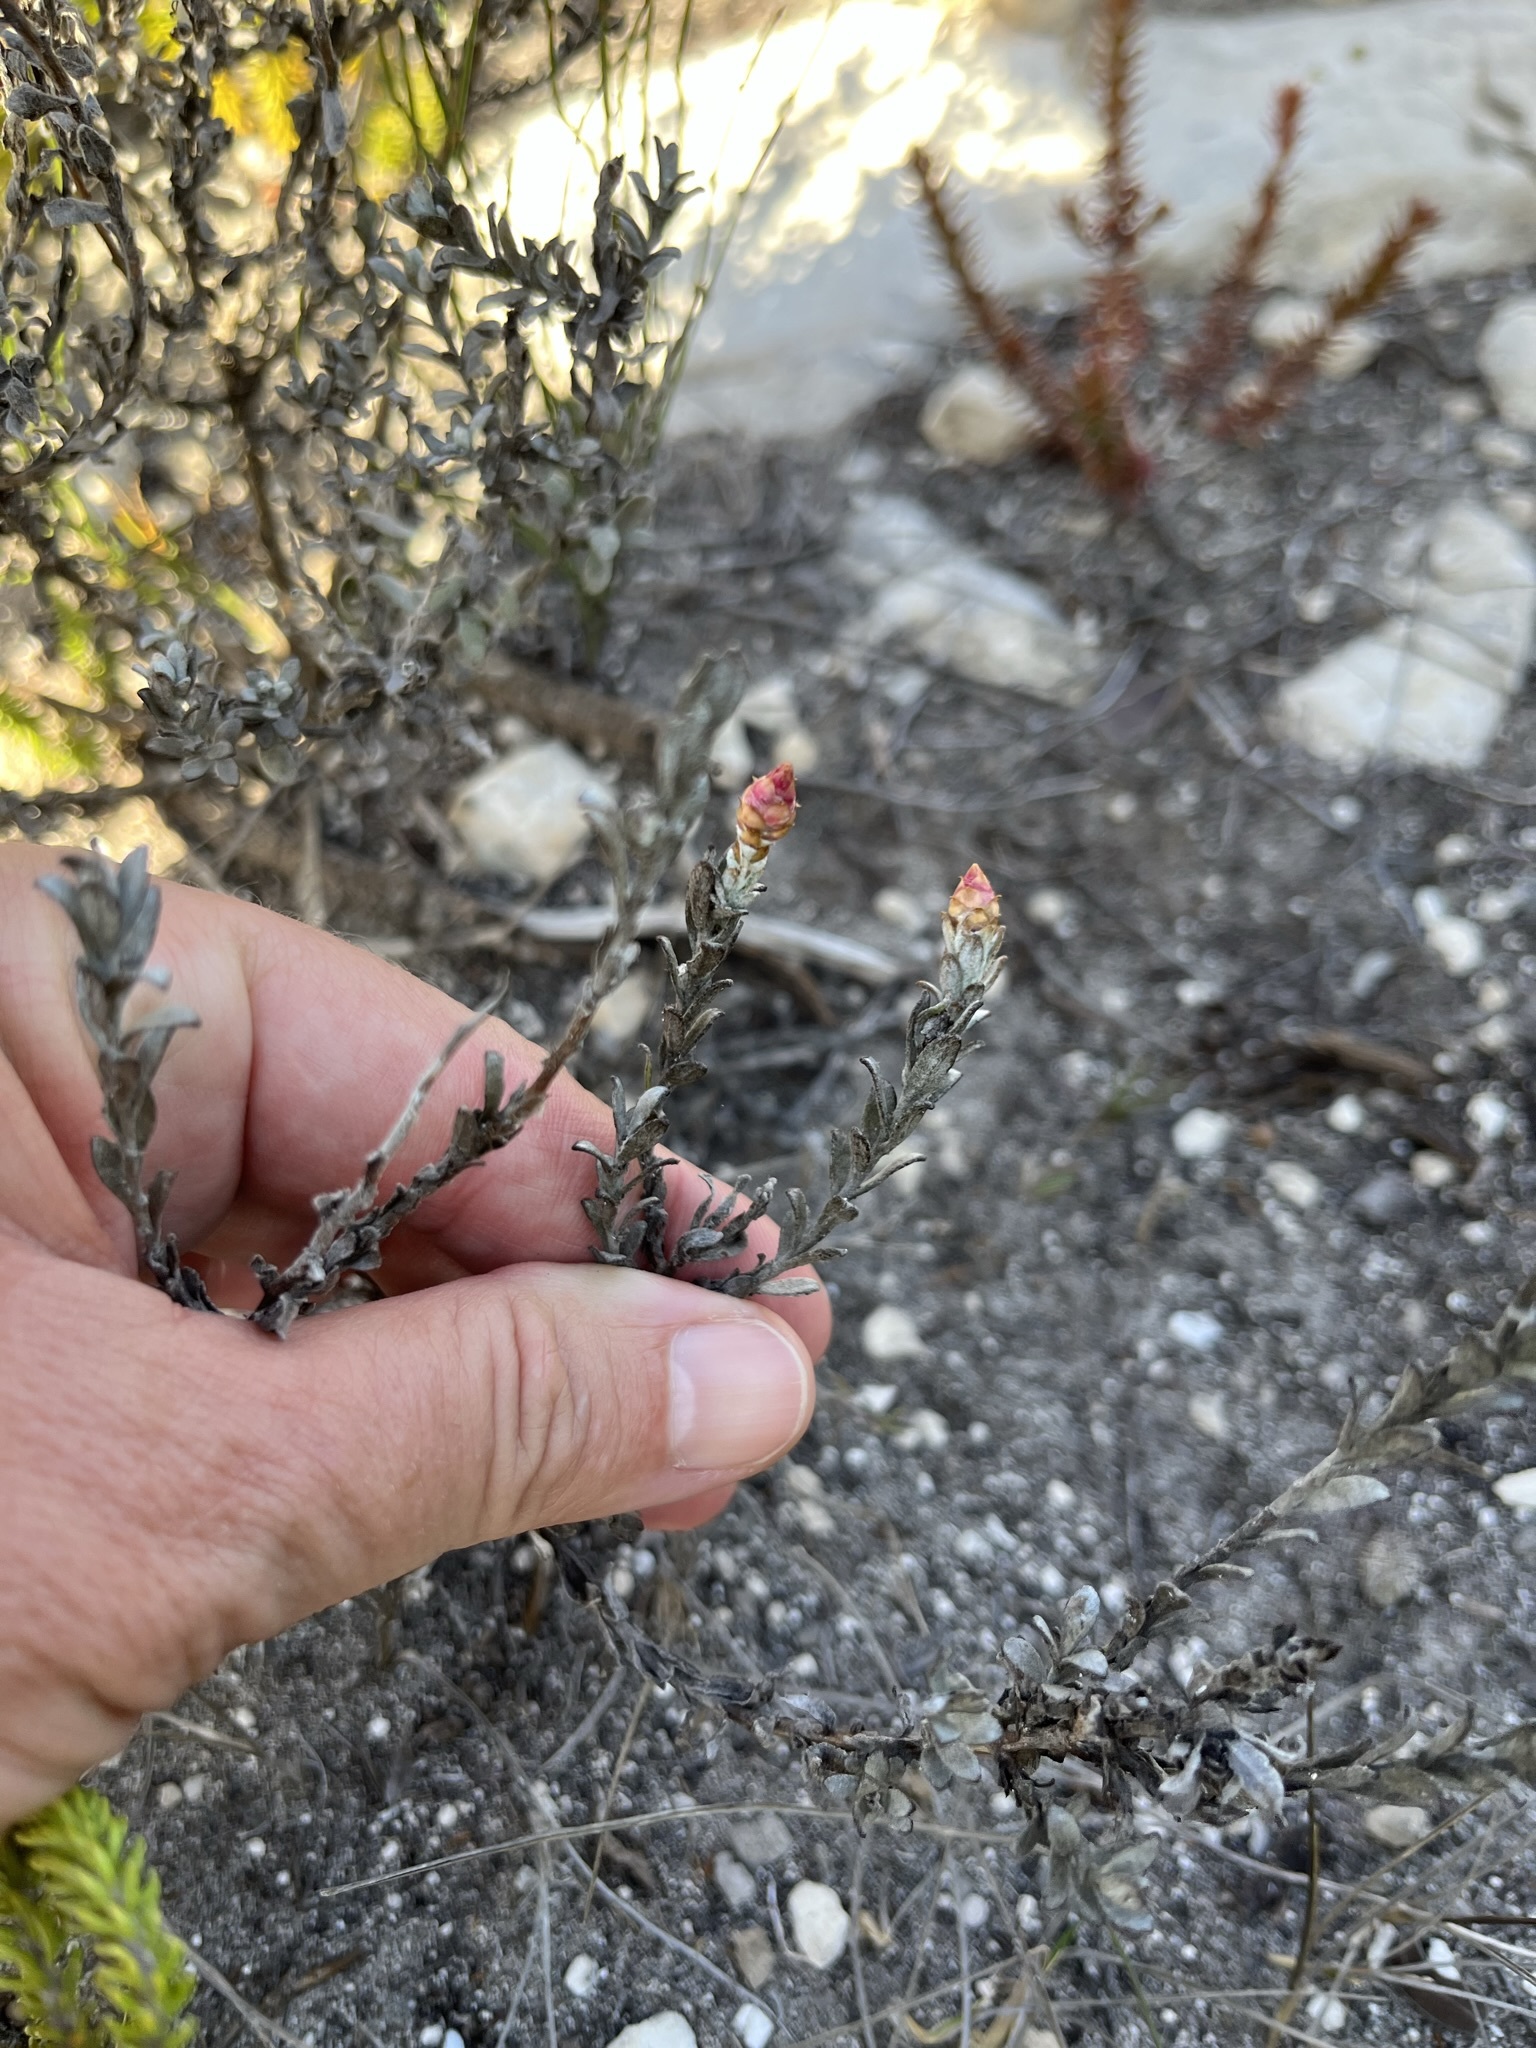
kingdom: Plantae
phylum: Tracheophyta
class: Magnoliopsida
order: Asterales
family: Asteraceae
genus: Syncarpha
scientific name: Syncarpha canescens
